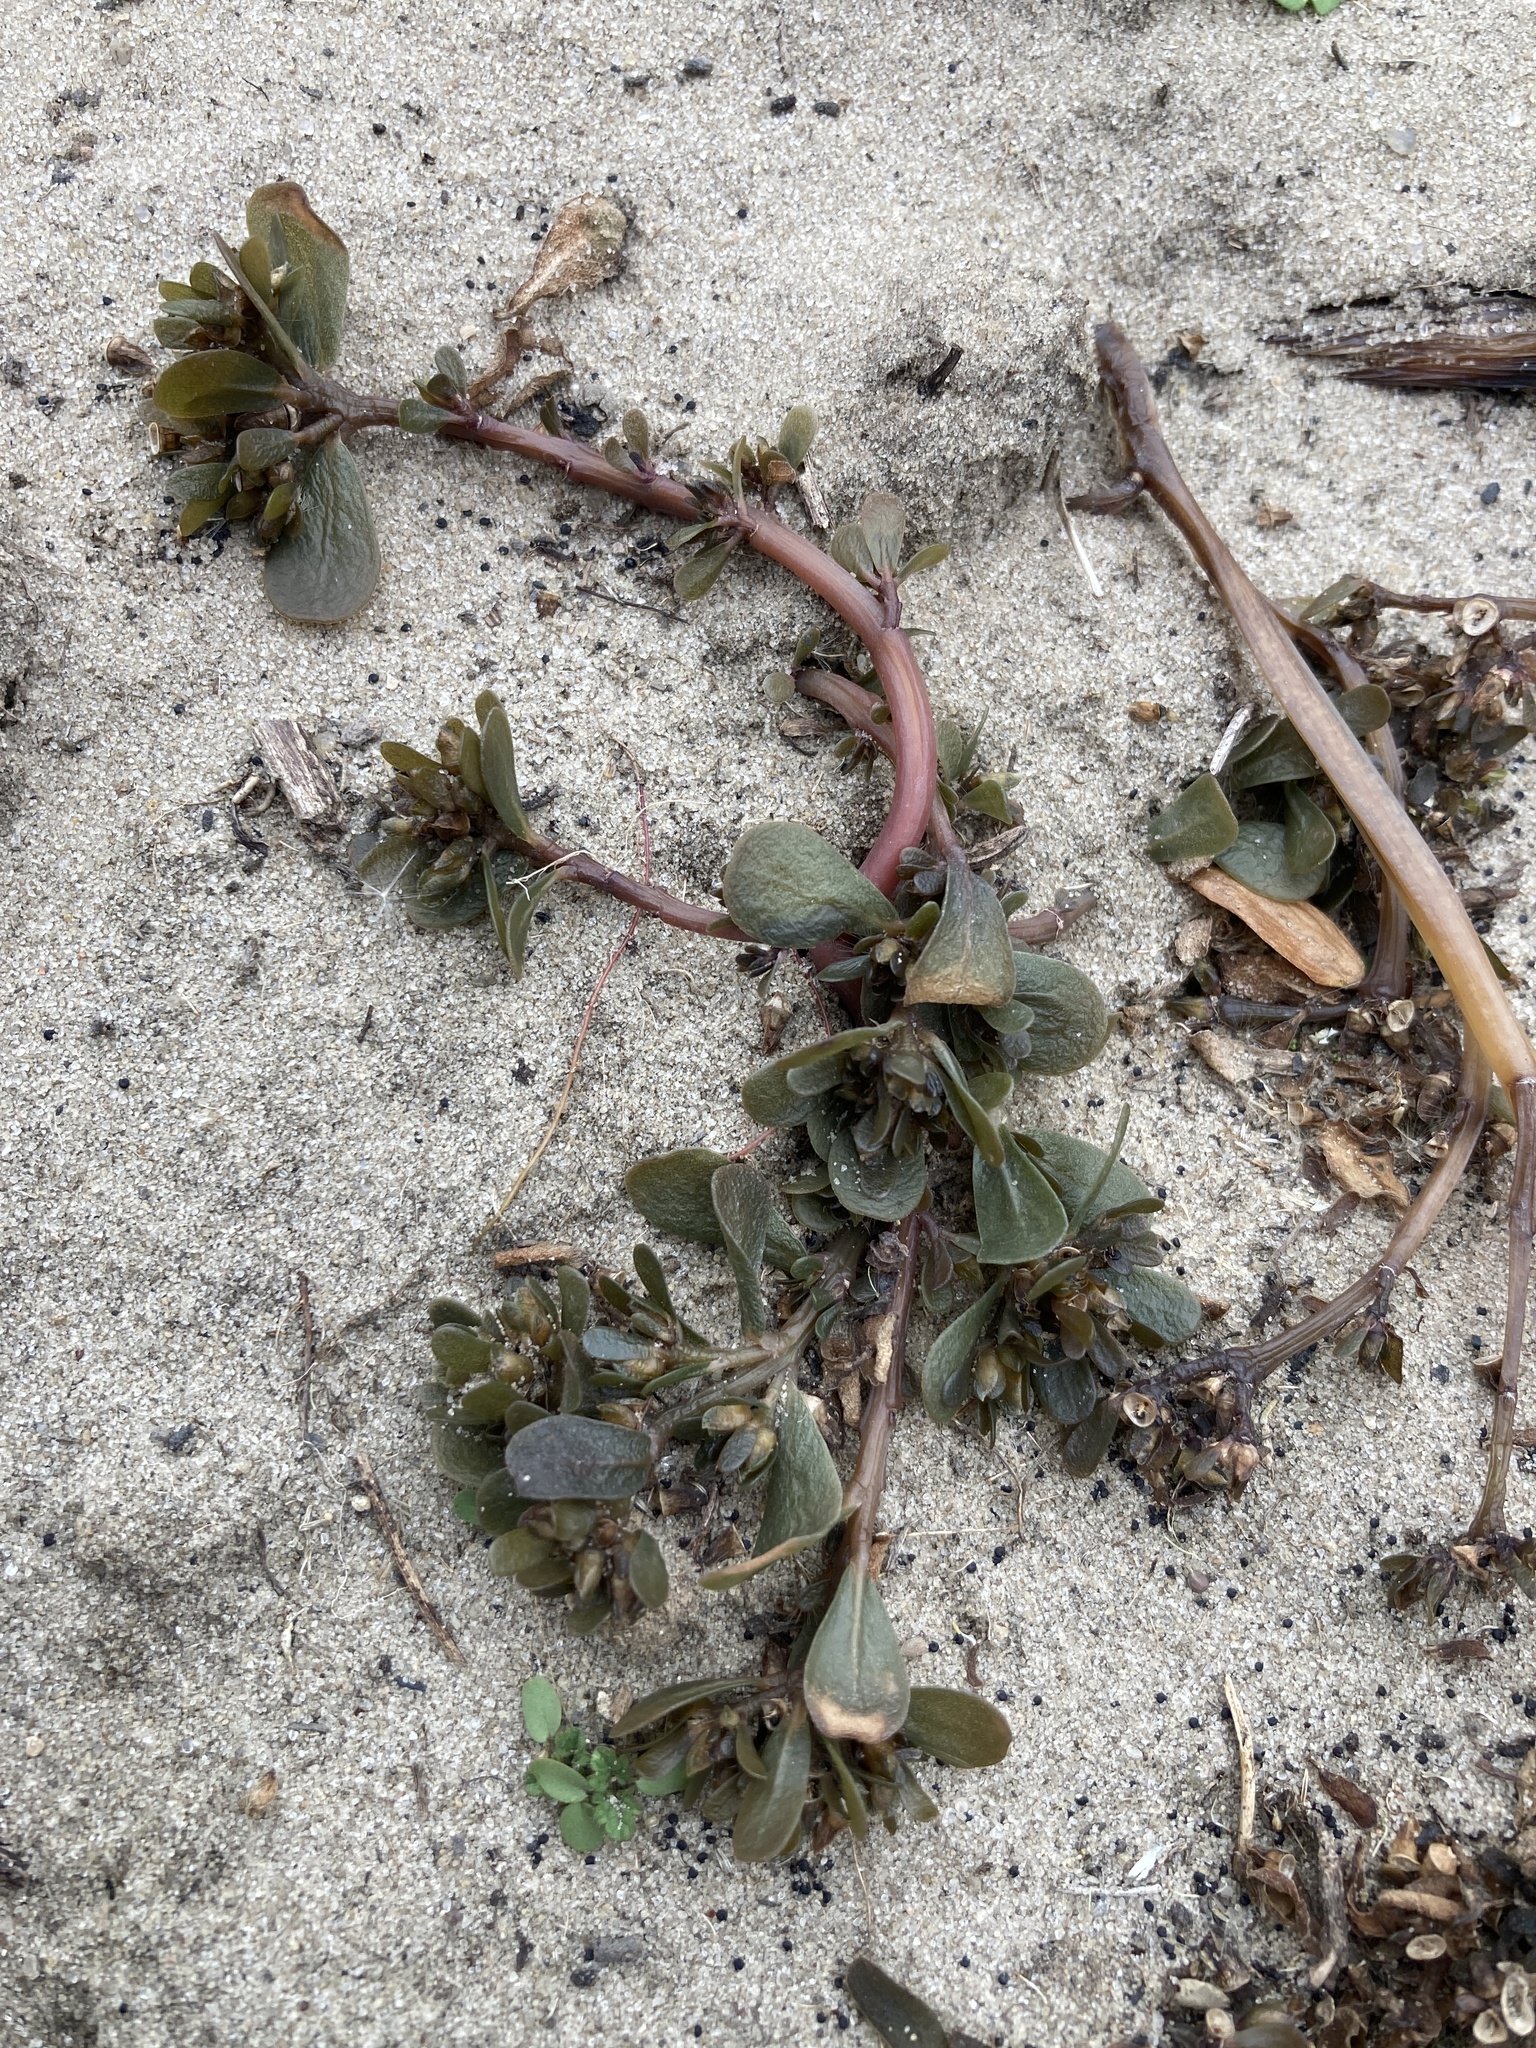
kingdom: Plantae
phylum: Tracheophyta
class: Magnoliopsida
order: Caryophyllales
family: Portulacaceae
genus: Portulaca
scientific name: Portulaca oleracea
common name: Common purslane
